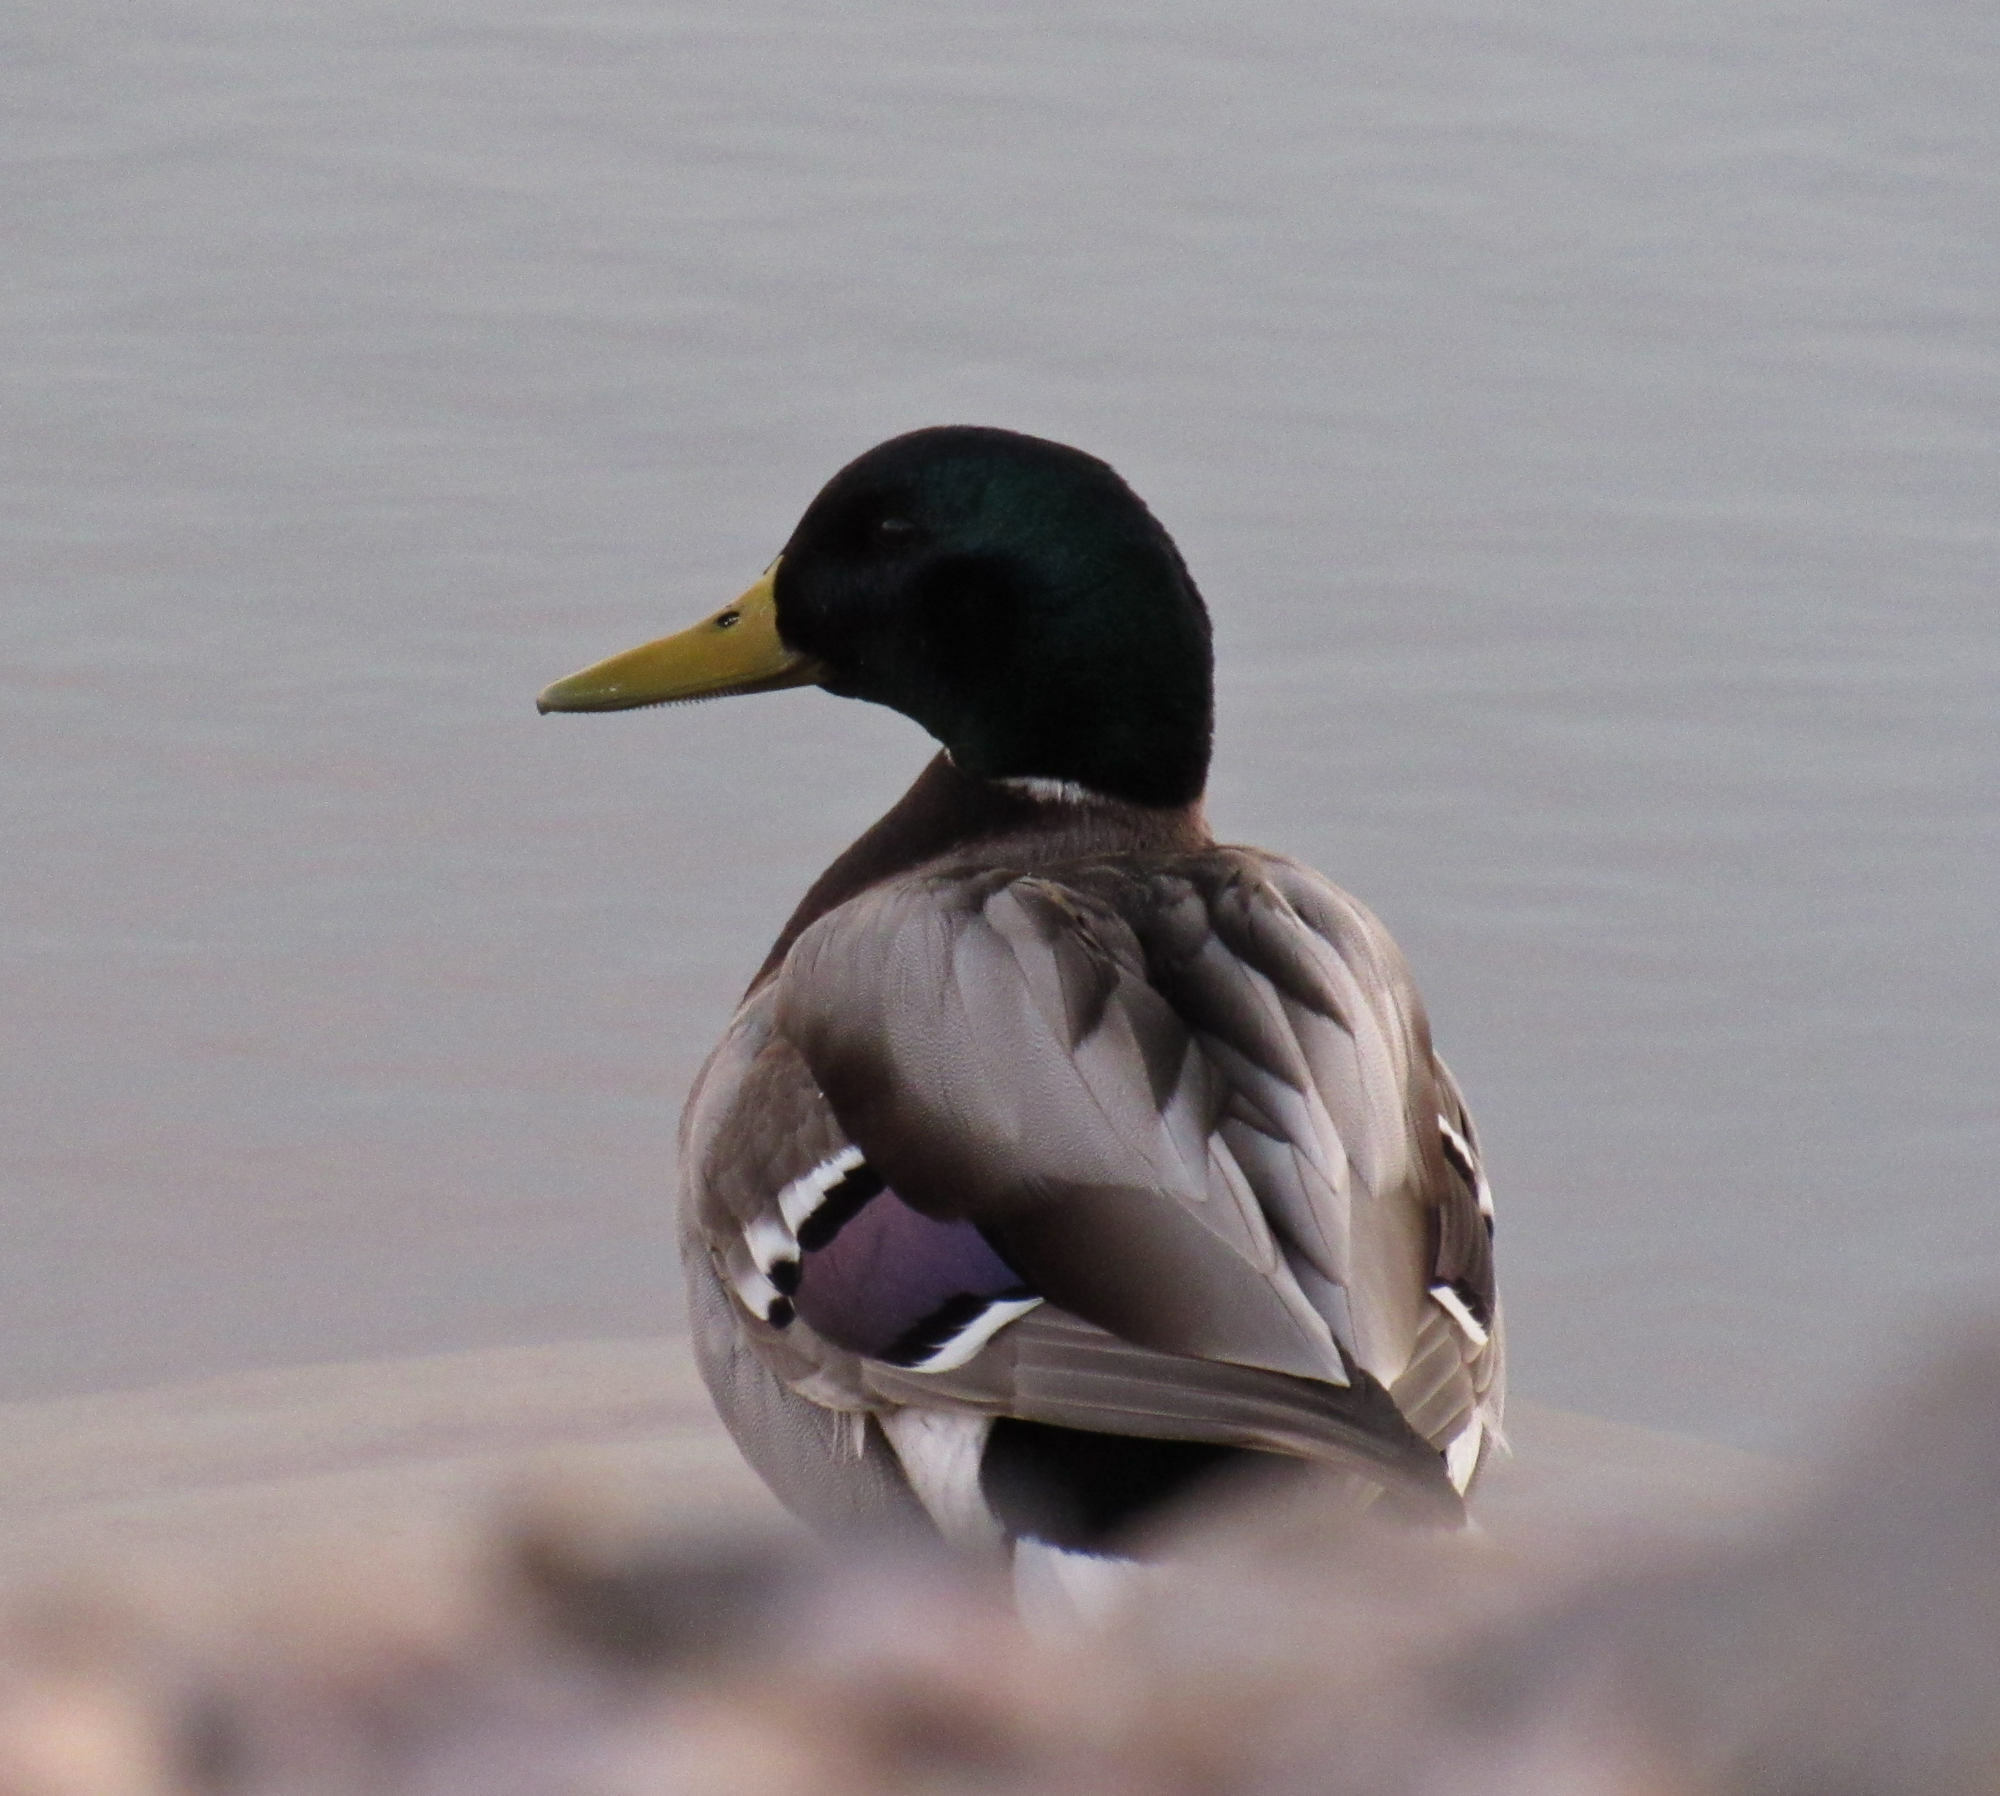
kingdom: Animalia
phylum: Chordata
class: Aves
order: Anseriformes
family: Anatidae
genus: Anas
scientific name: Anas platyrhynchos
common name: Mallard
